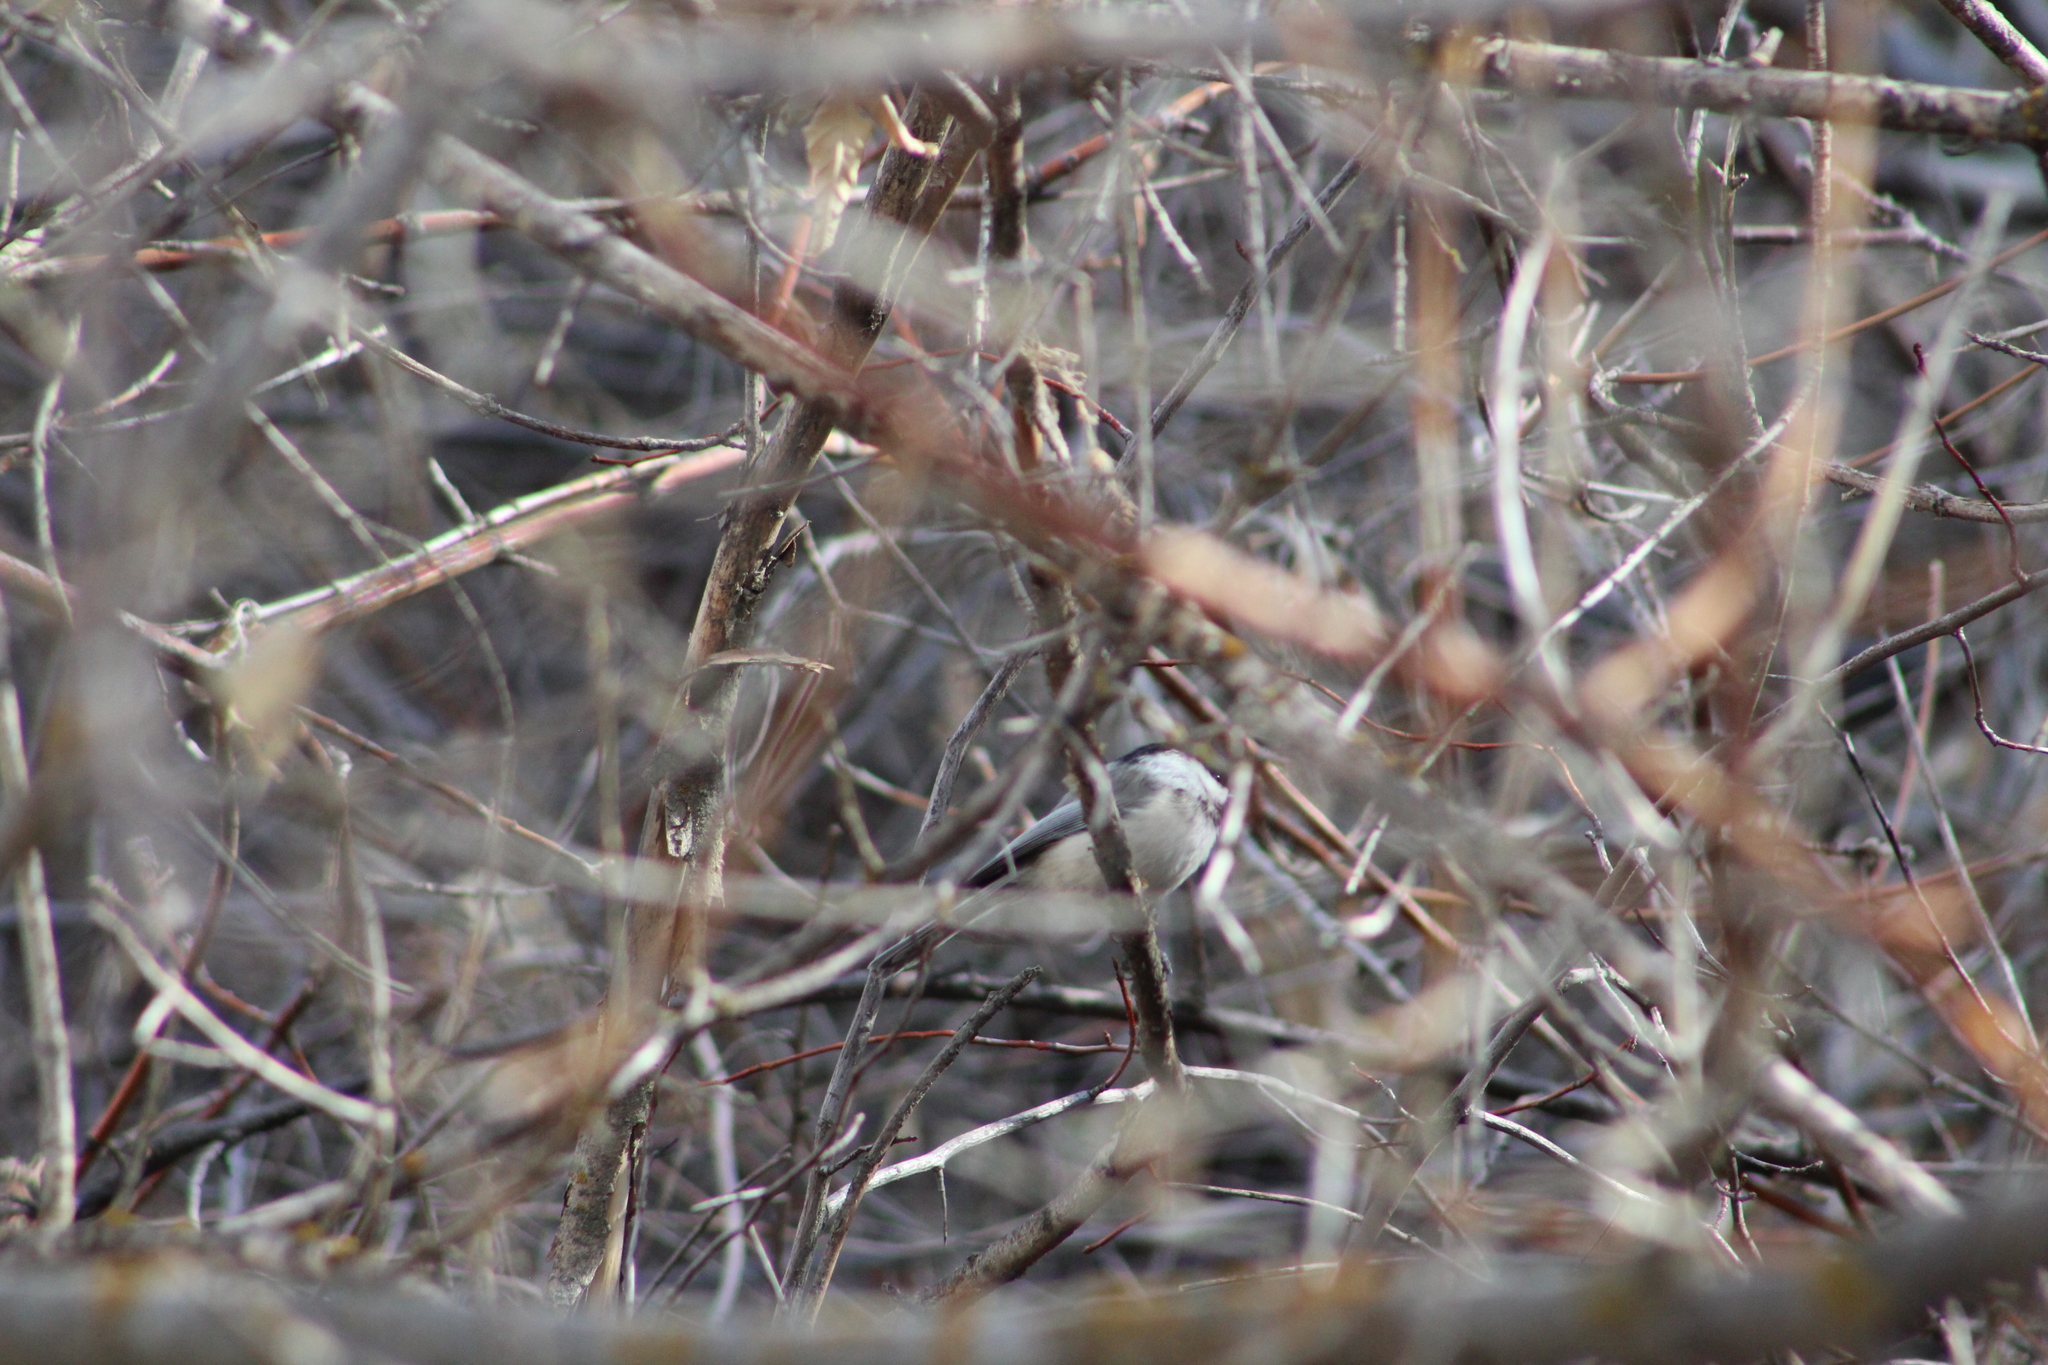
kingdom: Animalia
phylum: Chordata
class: Aves
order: Passeriformes
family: Paridae
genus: Poecile
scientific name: Poecile atricapillus
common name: Black-capped chickadee
